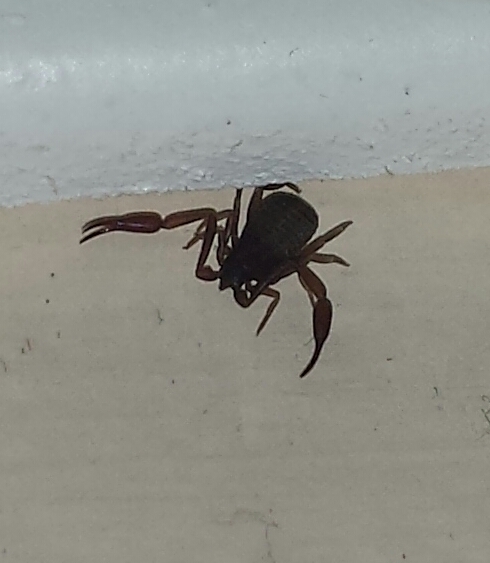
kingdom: Animalia
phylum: Arthropoda
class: Arachnida
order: Pseudoscorpiones
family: Cheliferidae
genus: Chelifer
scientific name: Chelifer cancroides
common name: House false-scorpion
